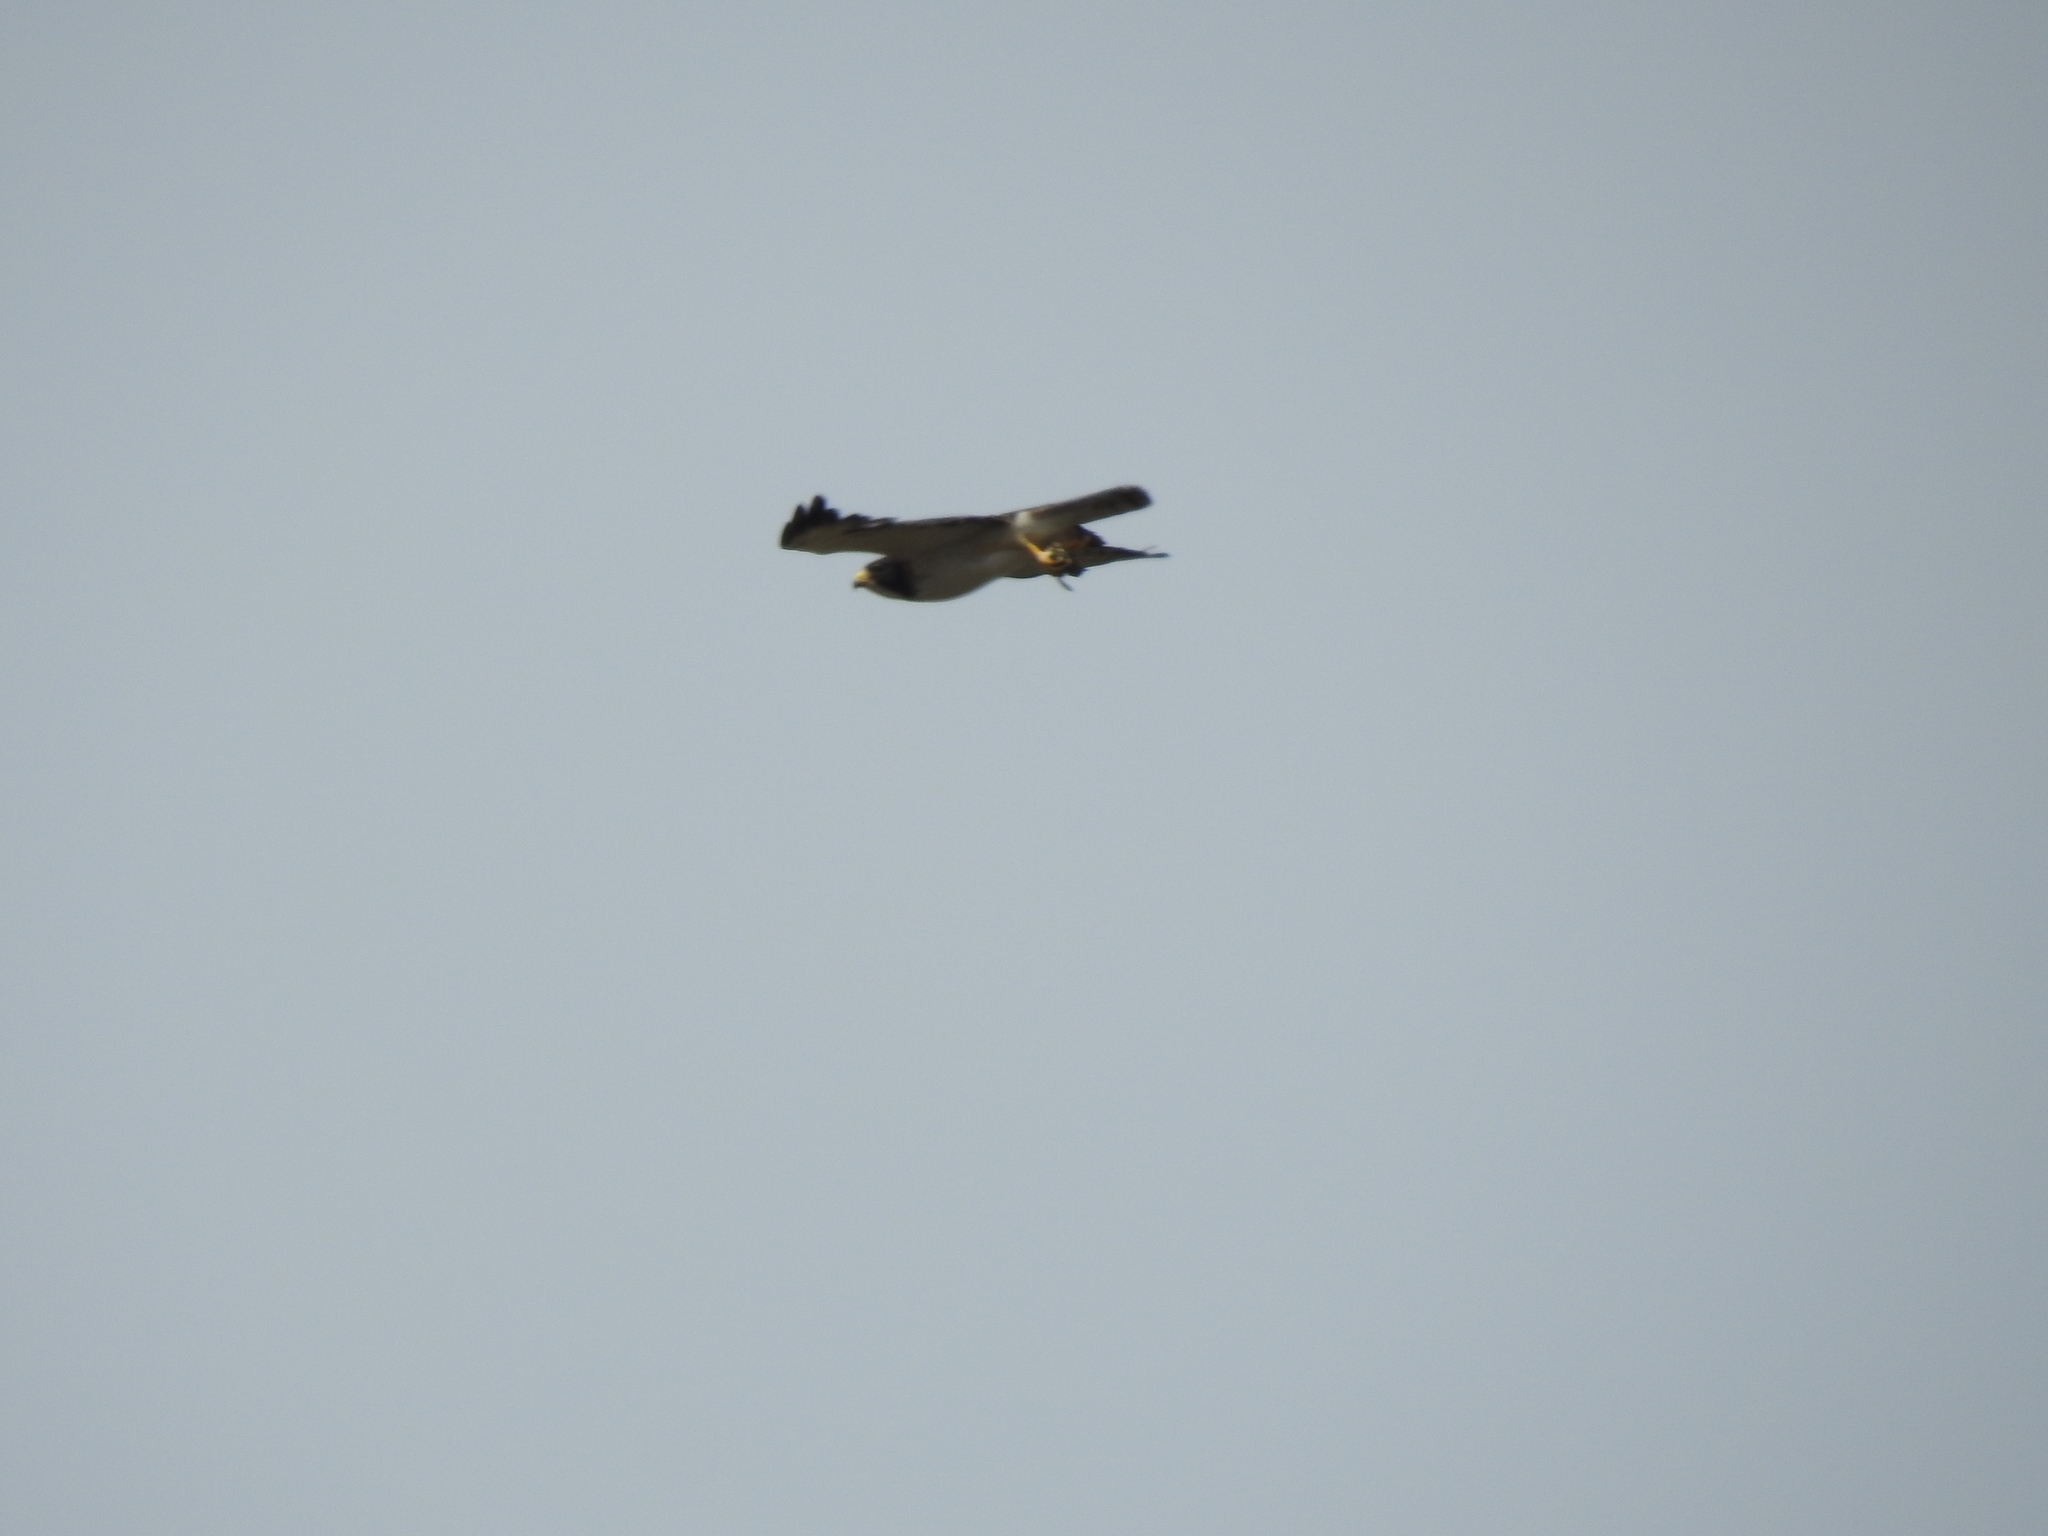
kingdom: Animalia
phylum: Chordata
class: Aves
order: Accipitriformes
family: Accipitridae
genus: Buteo
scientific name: Buteo brachyurus
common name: Short-tailed hawk
